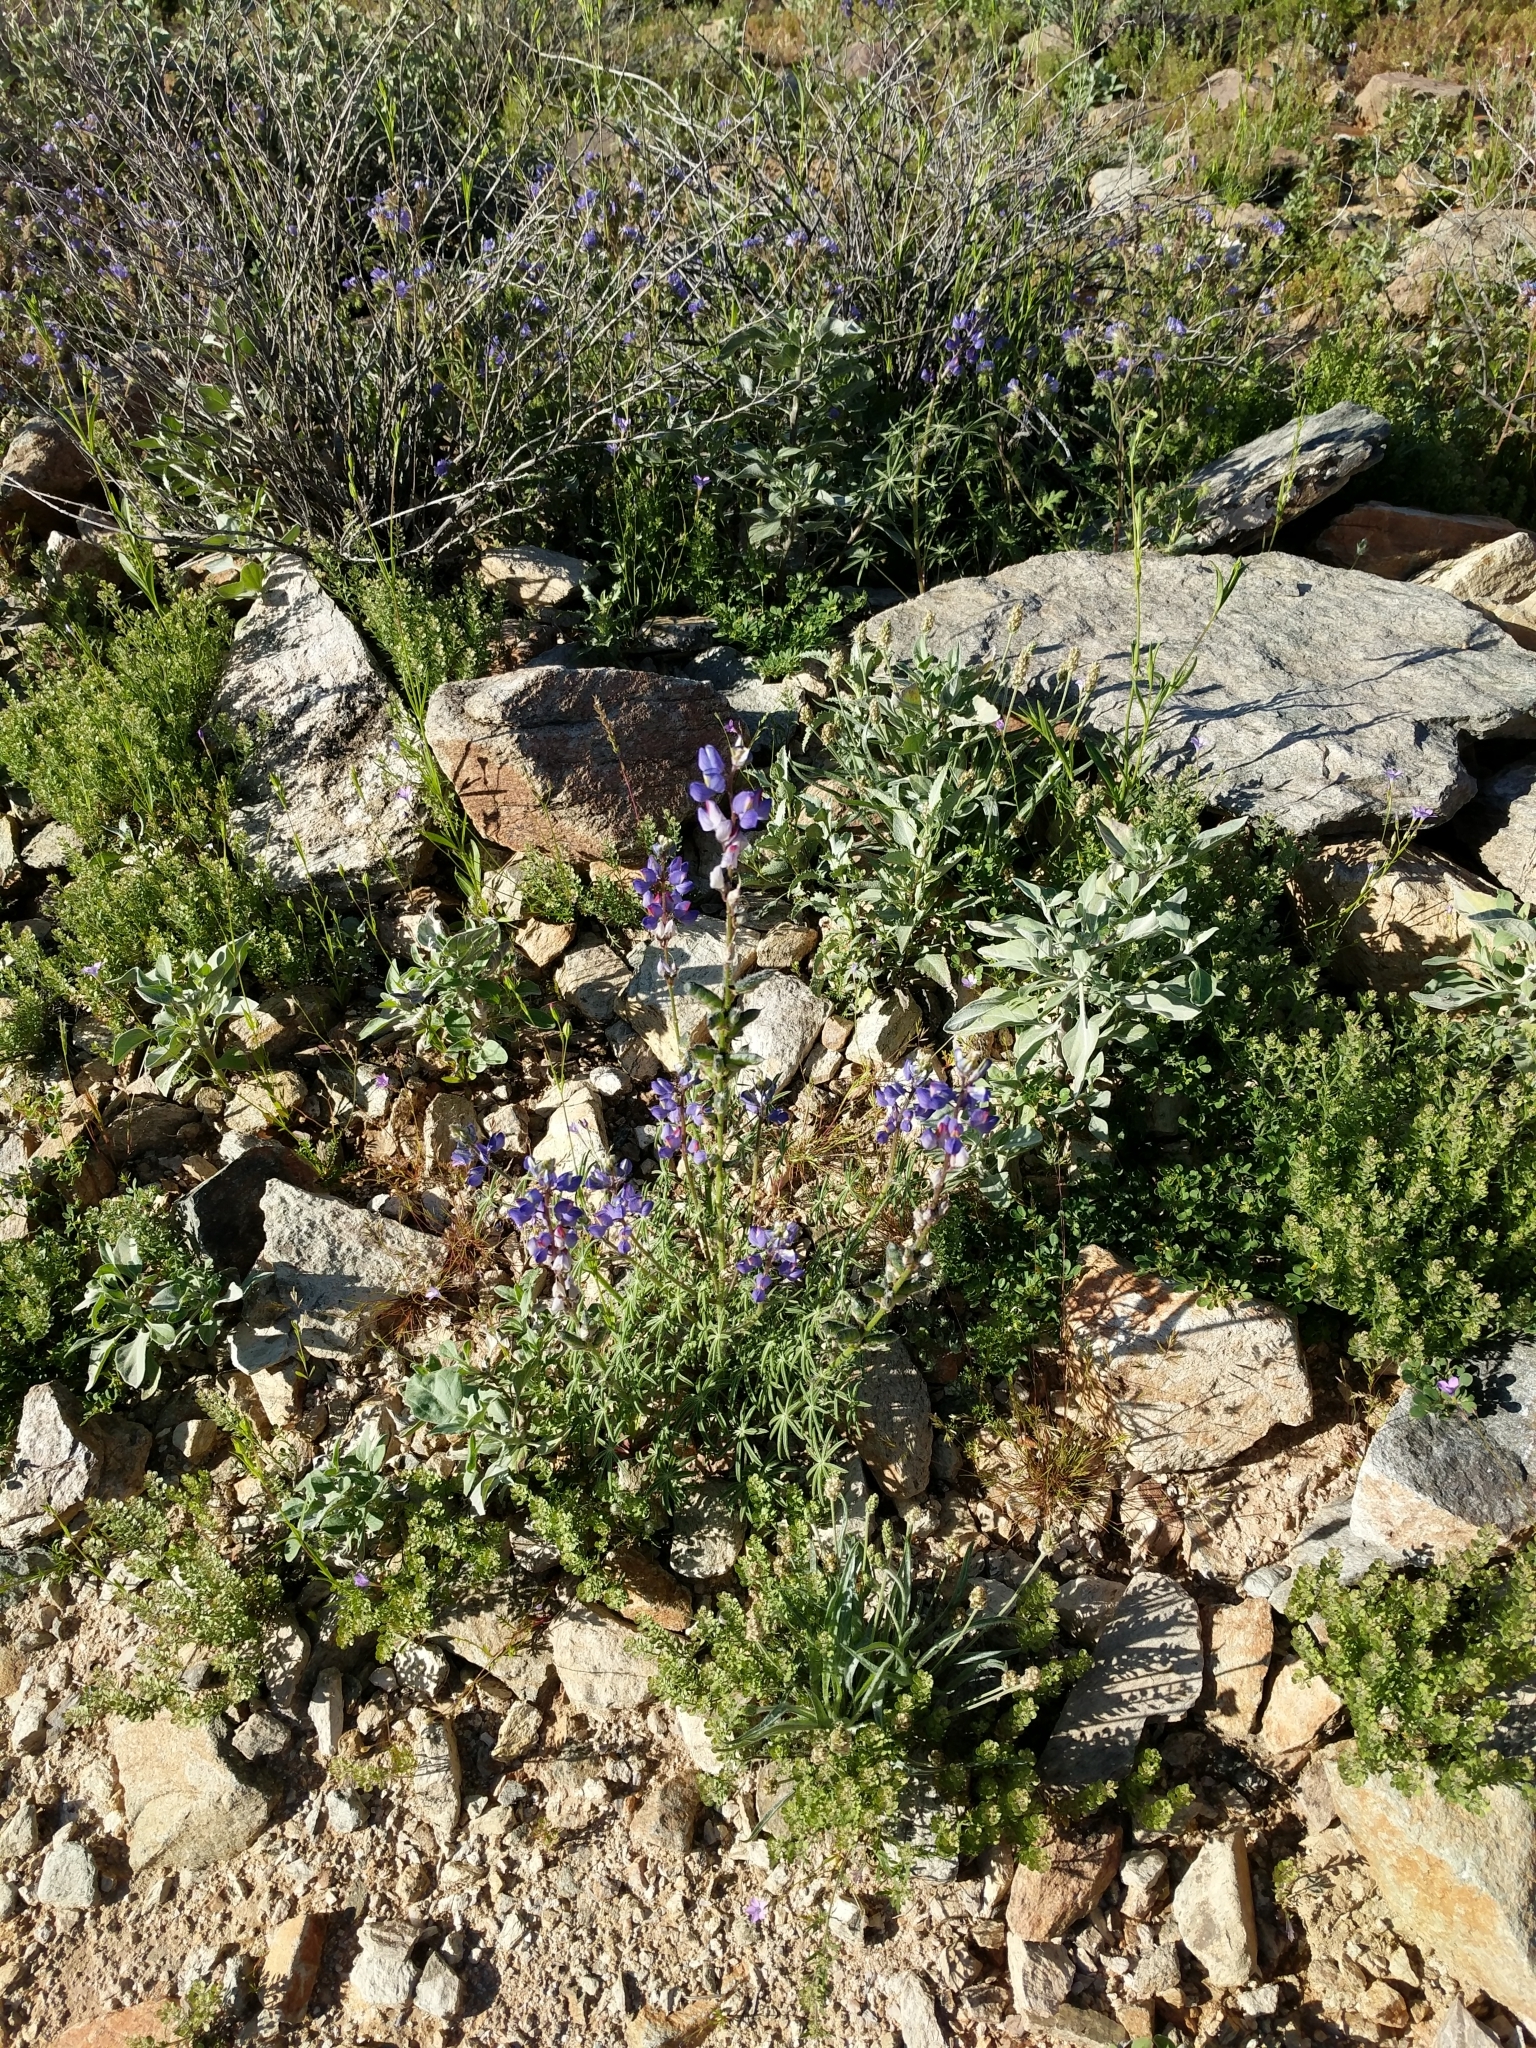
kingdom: Plantae
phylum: Tracheophyta
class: Magnoliopsida
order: Fabales
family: Fabaceae
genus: Lupinus
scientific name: Lupinus sparsiflorus
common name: Coulter's lupine
